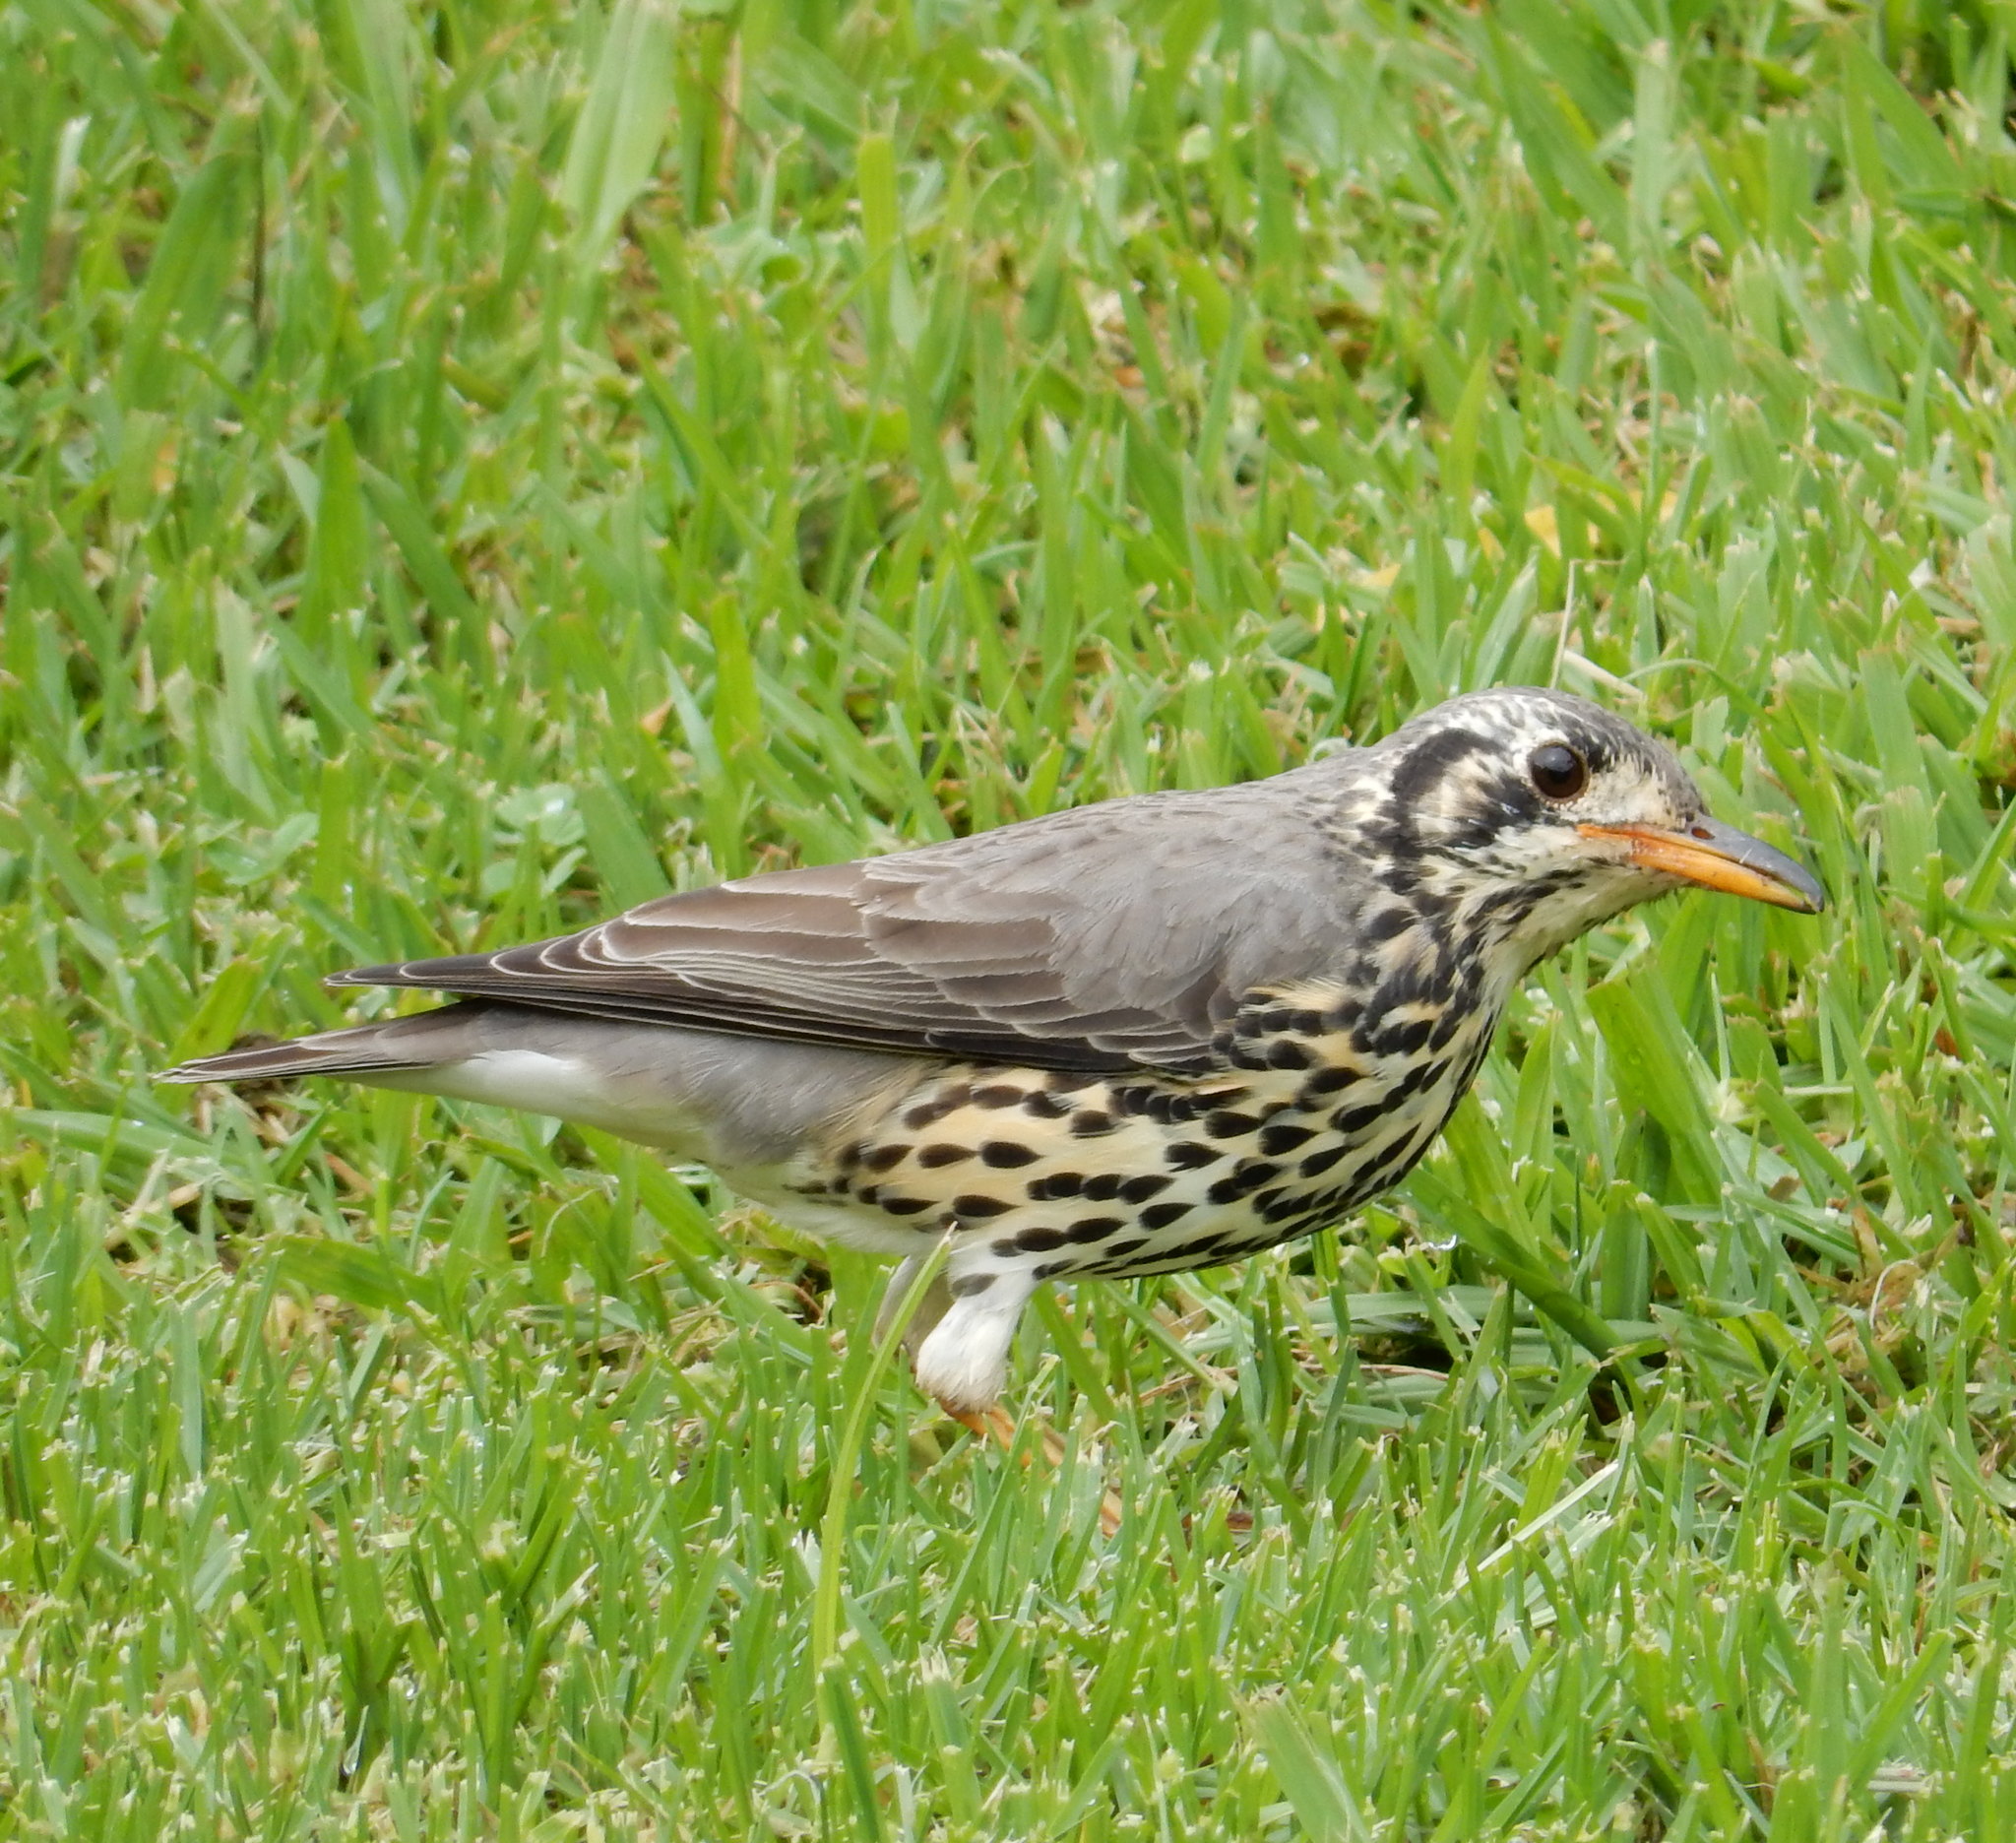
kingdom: Animalia
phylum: Chordata
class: Aves
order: Passeriformes
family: Turdidae
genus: Psophocichla
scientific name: Psophocichla litsitsirupa
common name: Groundscraper thrush
